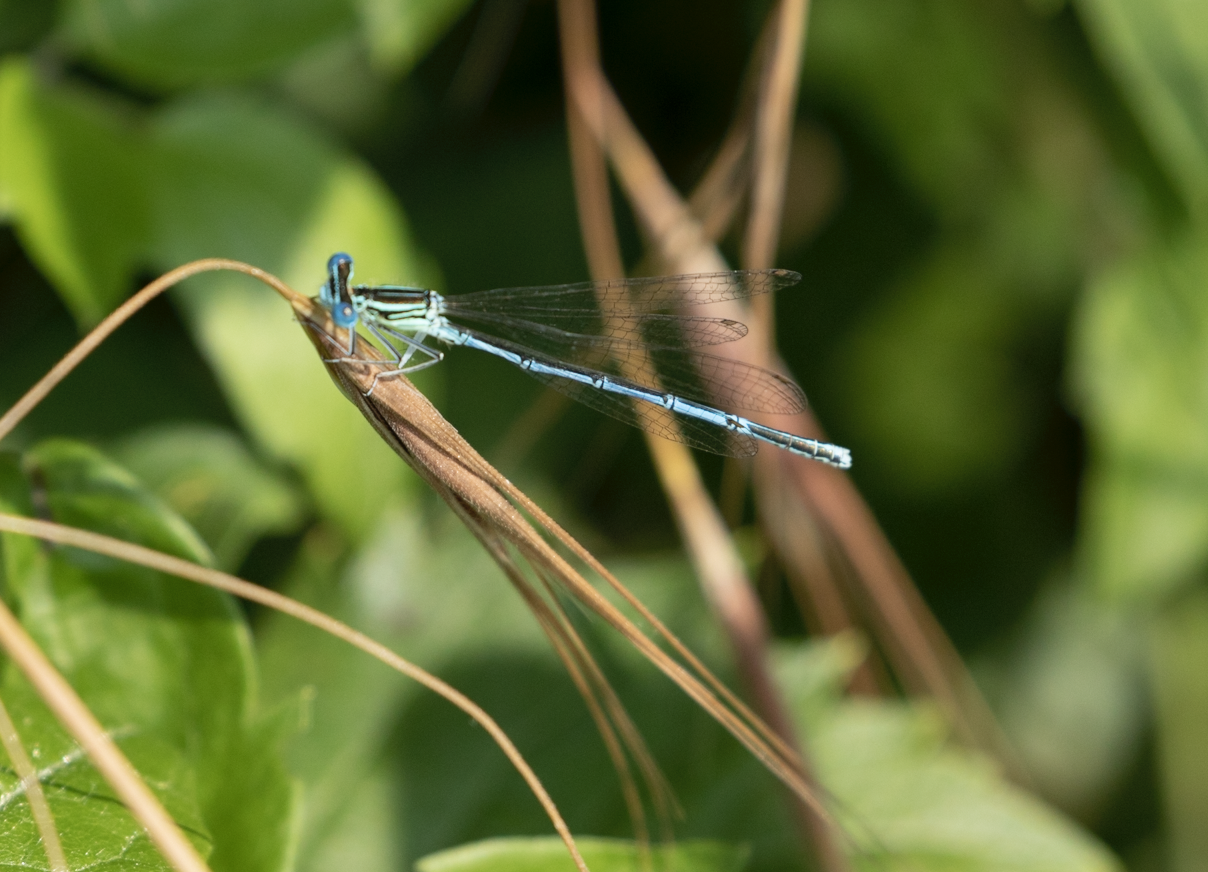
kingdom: Animalia
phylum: Arthropoda
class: Insecta
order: Odonata
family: Platycnemididae
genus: Platycnemis
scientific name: Platycnemis pennipes
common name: White-legged damselfly
